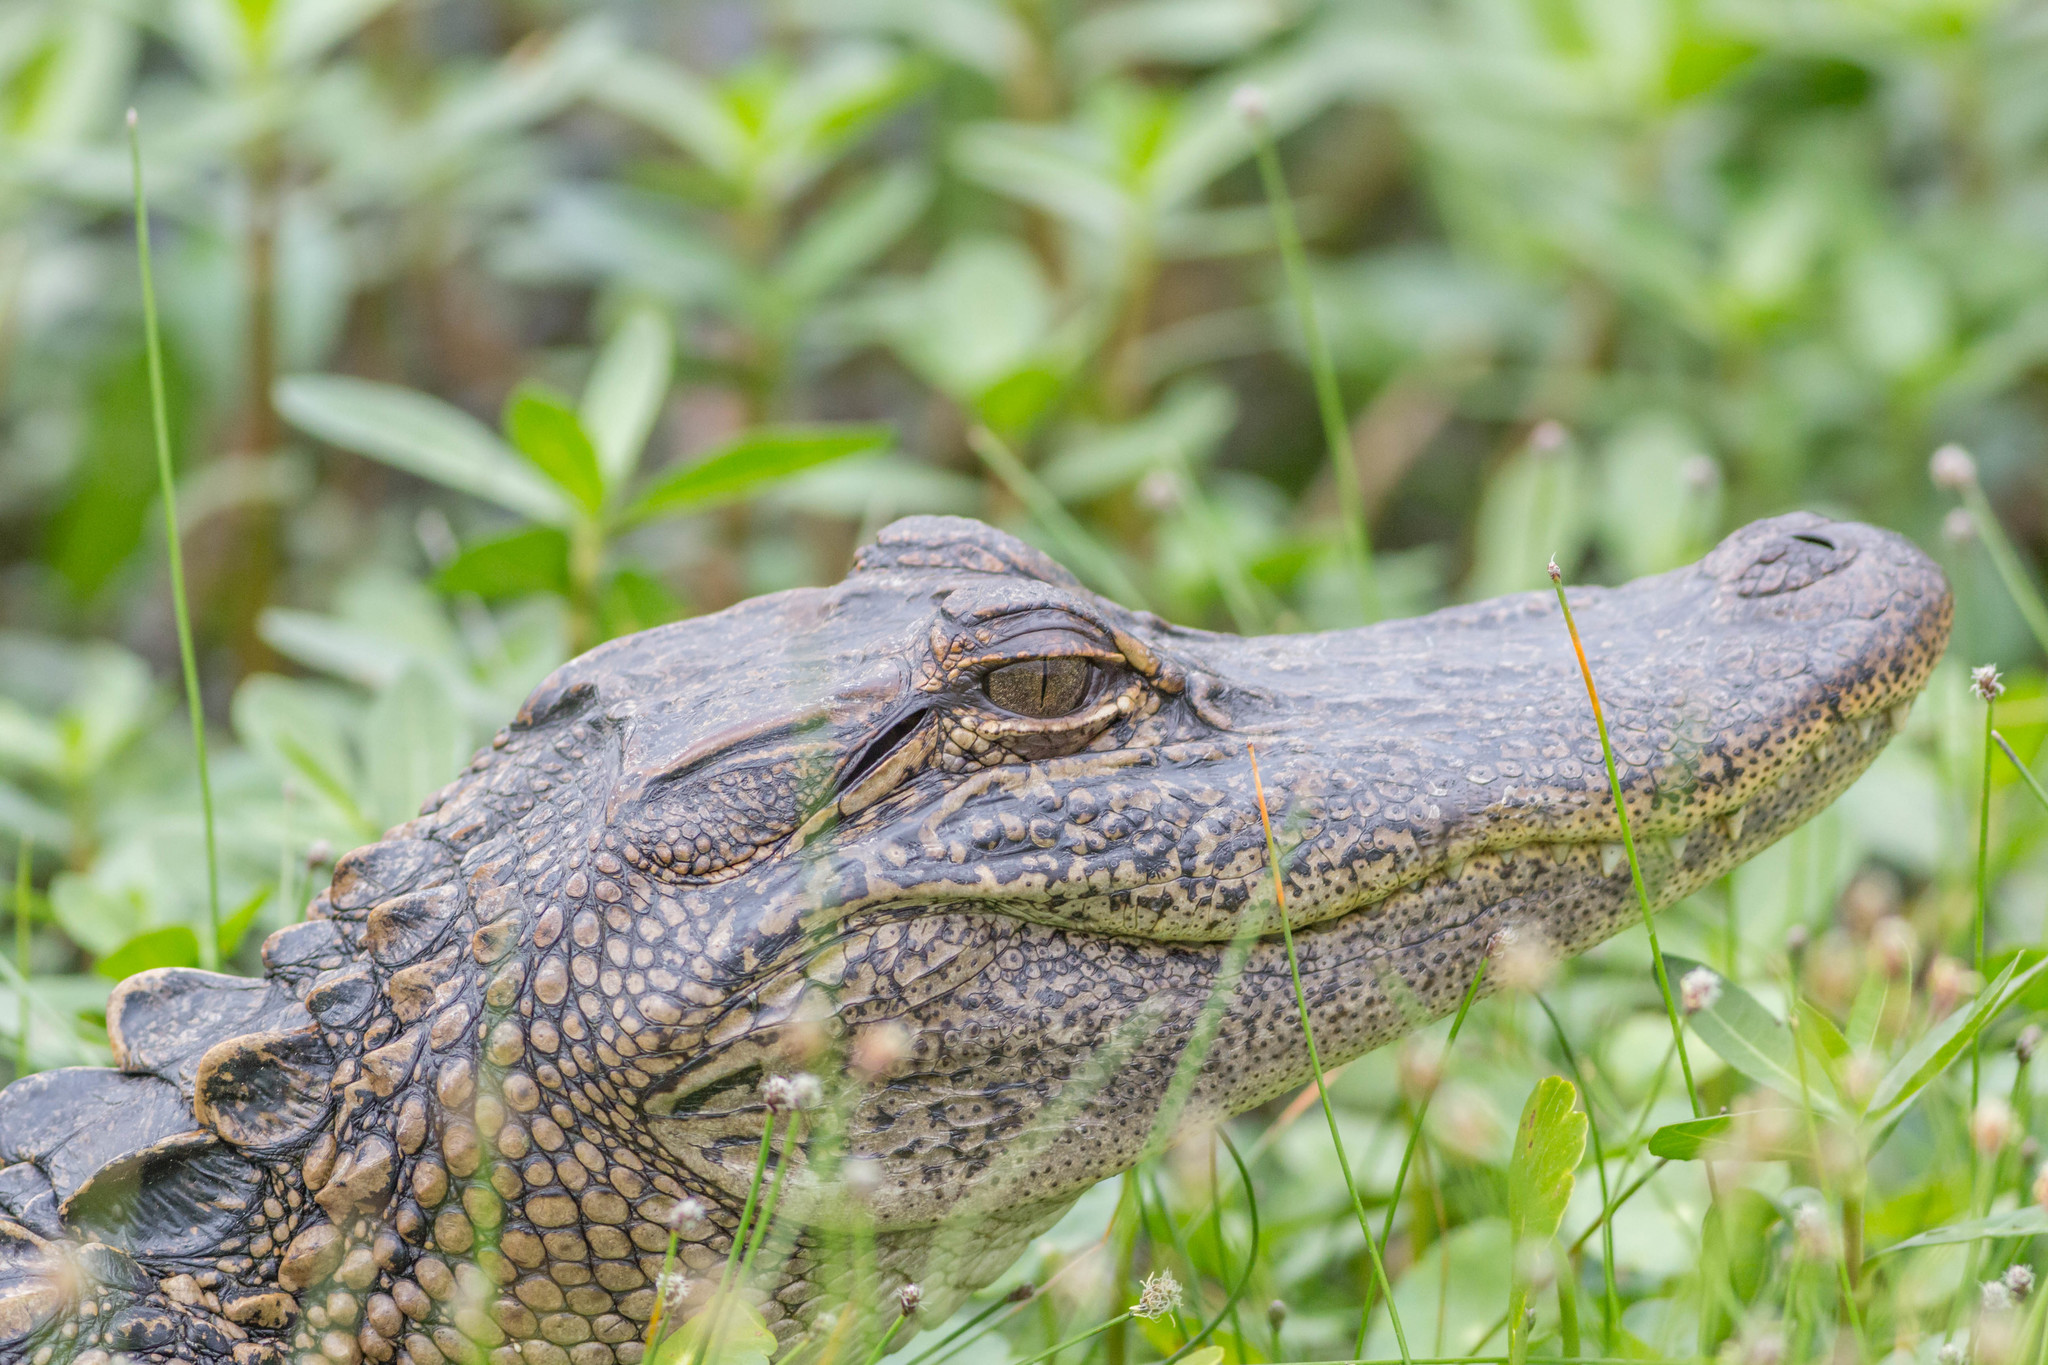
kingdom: Animalia
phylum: Chordata
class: Crocodylia
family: Alligatoridae
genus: Alligator
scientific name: Alligator mississippiensis
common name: American alligator
